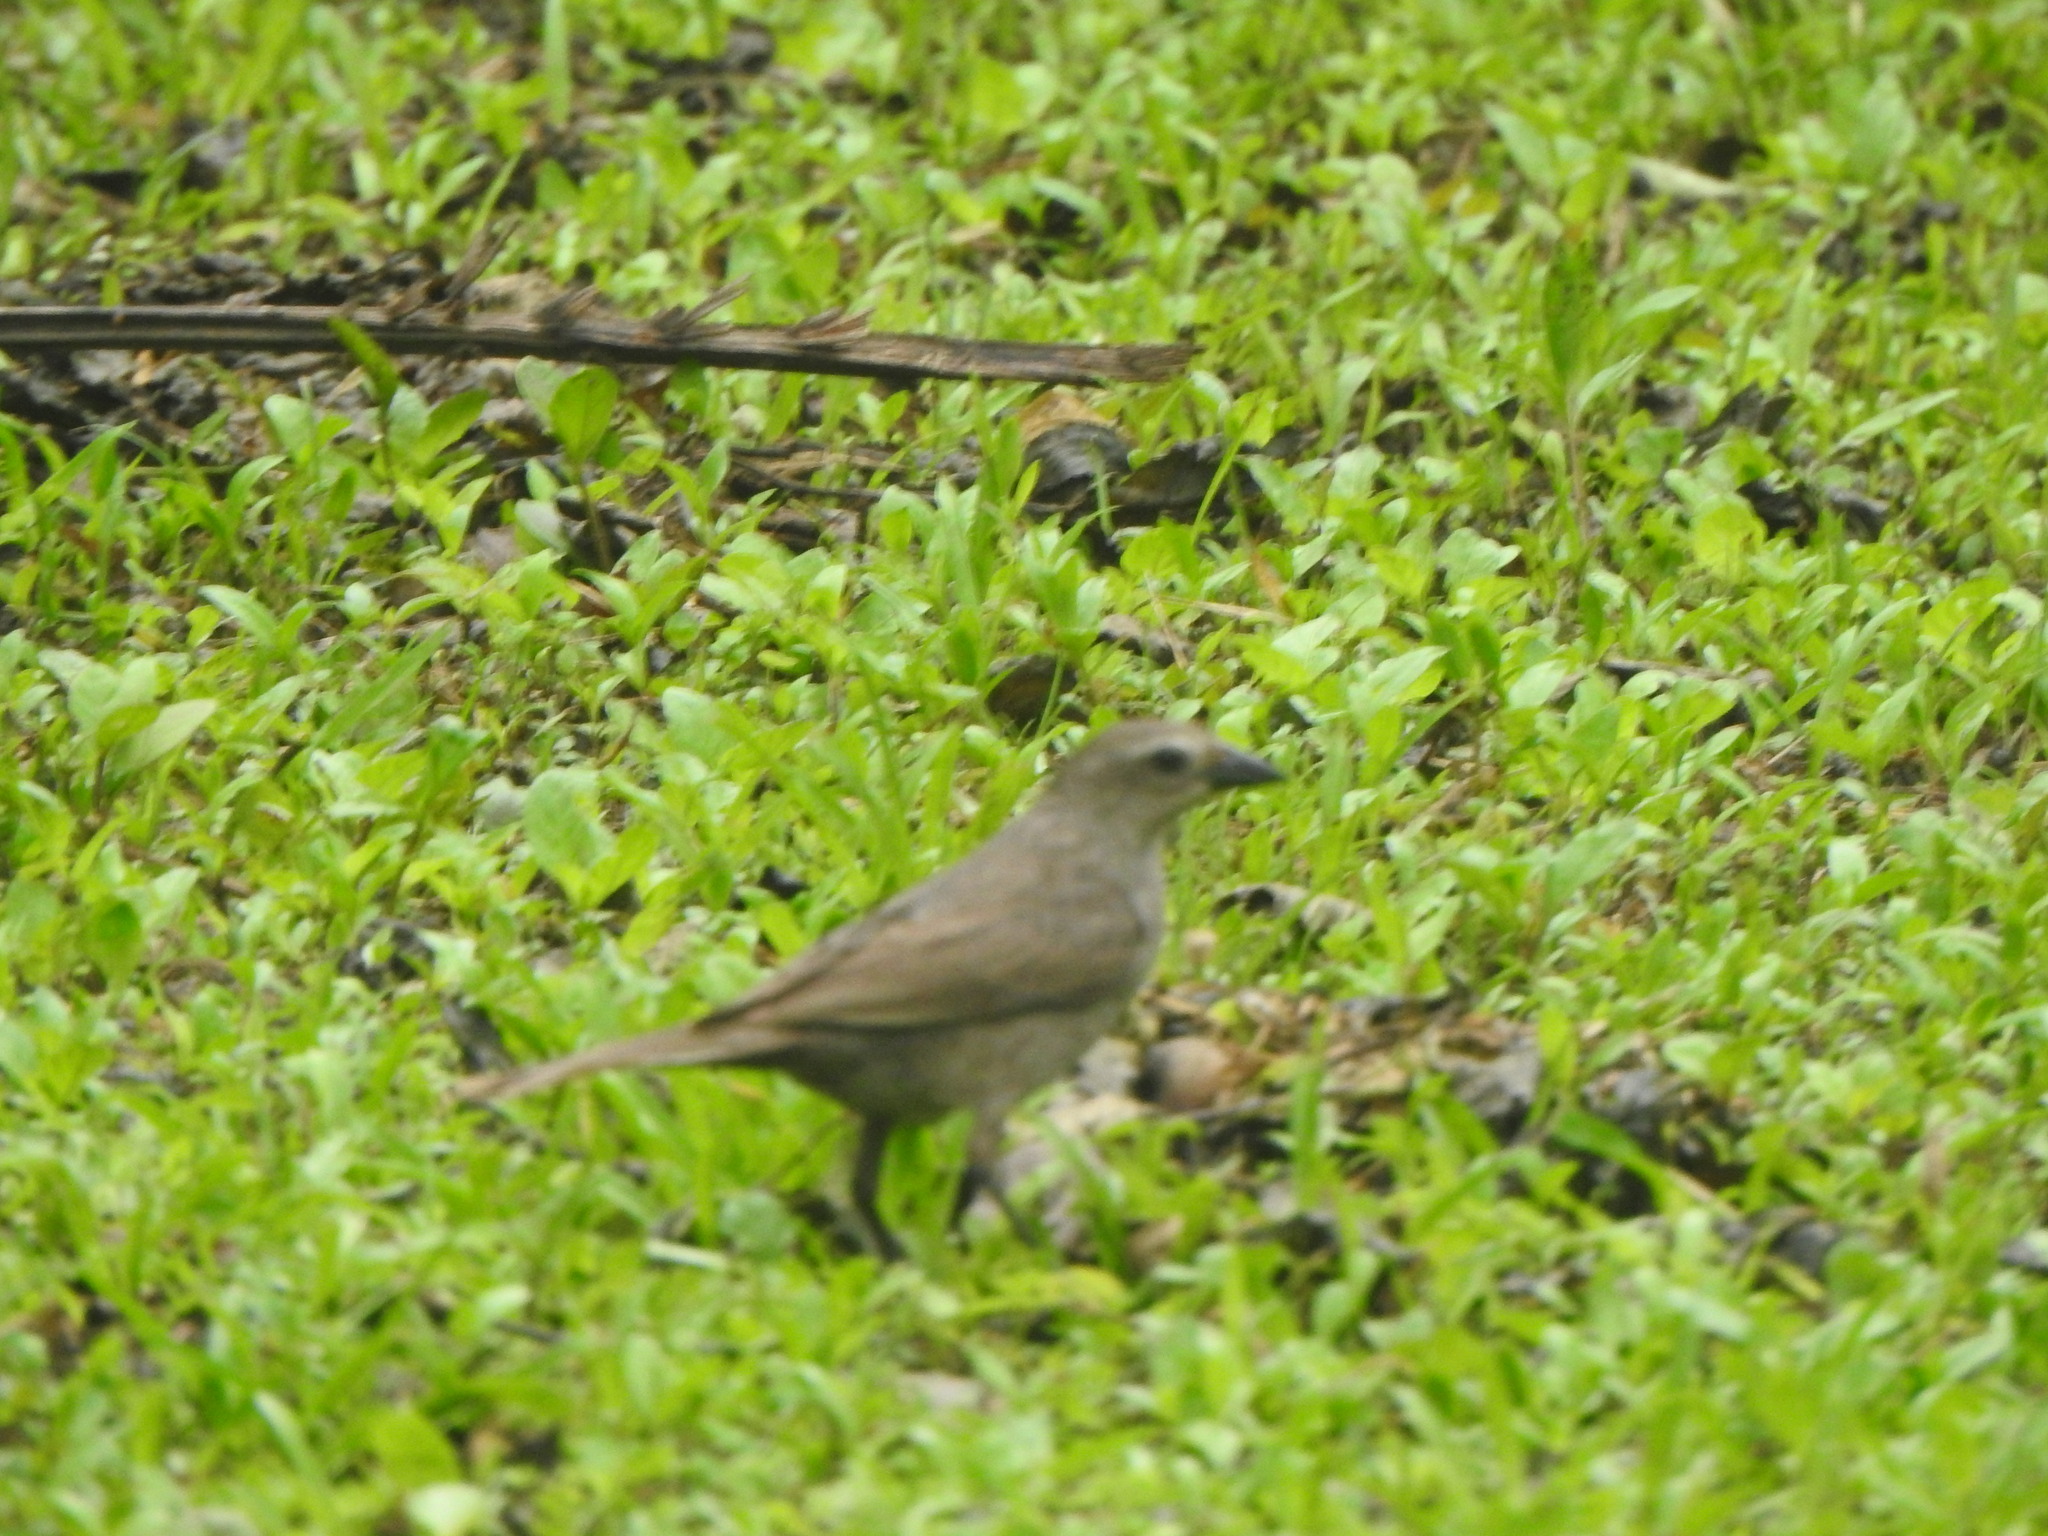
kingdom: Animalia
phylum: Chordata
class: Aves
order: Passeriformes
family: Icteridae
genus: Molothrus
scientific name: Molothrus bonariensis
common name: Shiny cowbird
